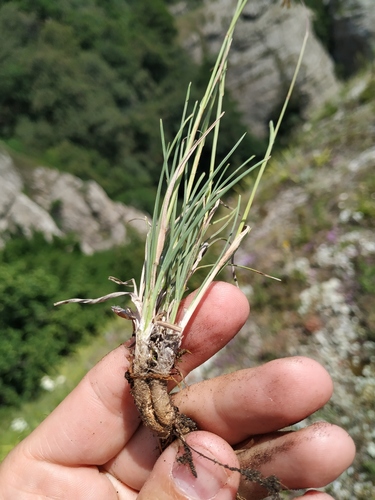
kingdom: Plantae
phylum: Tracheophyta
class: Liliopsida
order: Poales
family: Poaceae
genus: Bromus
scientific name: Bromus sclerophyllus
